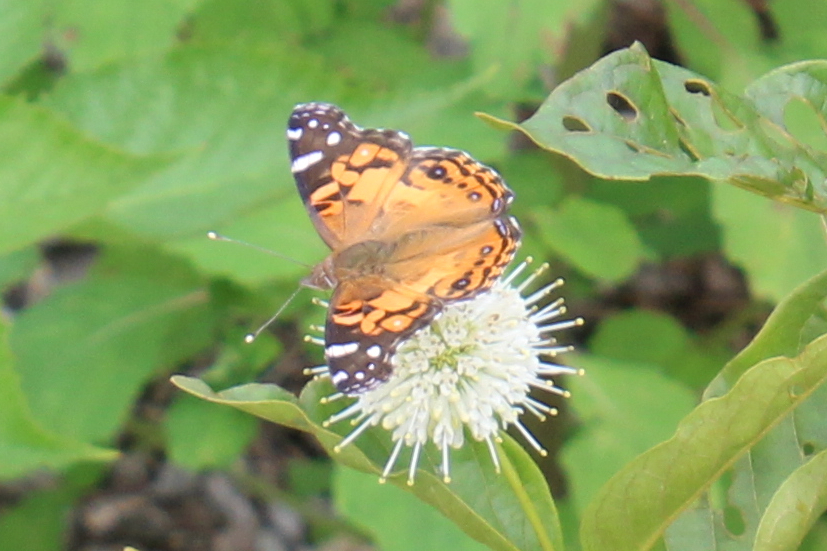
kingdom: Animalia
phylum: Arthropoda
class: Insecta
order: Lepidoptera
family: Nymphalidae
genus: Vanessa
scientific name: Vanessa virginiensis
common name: American lady
